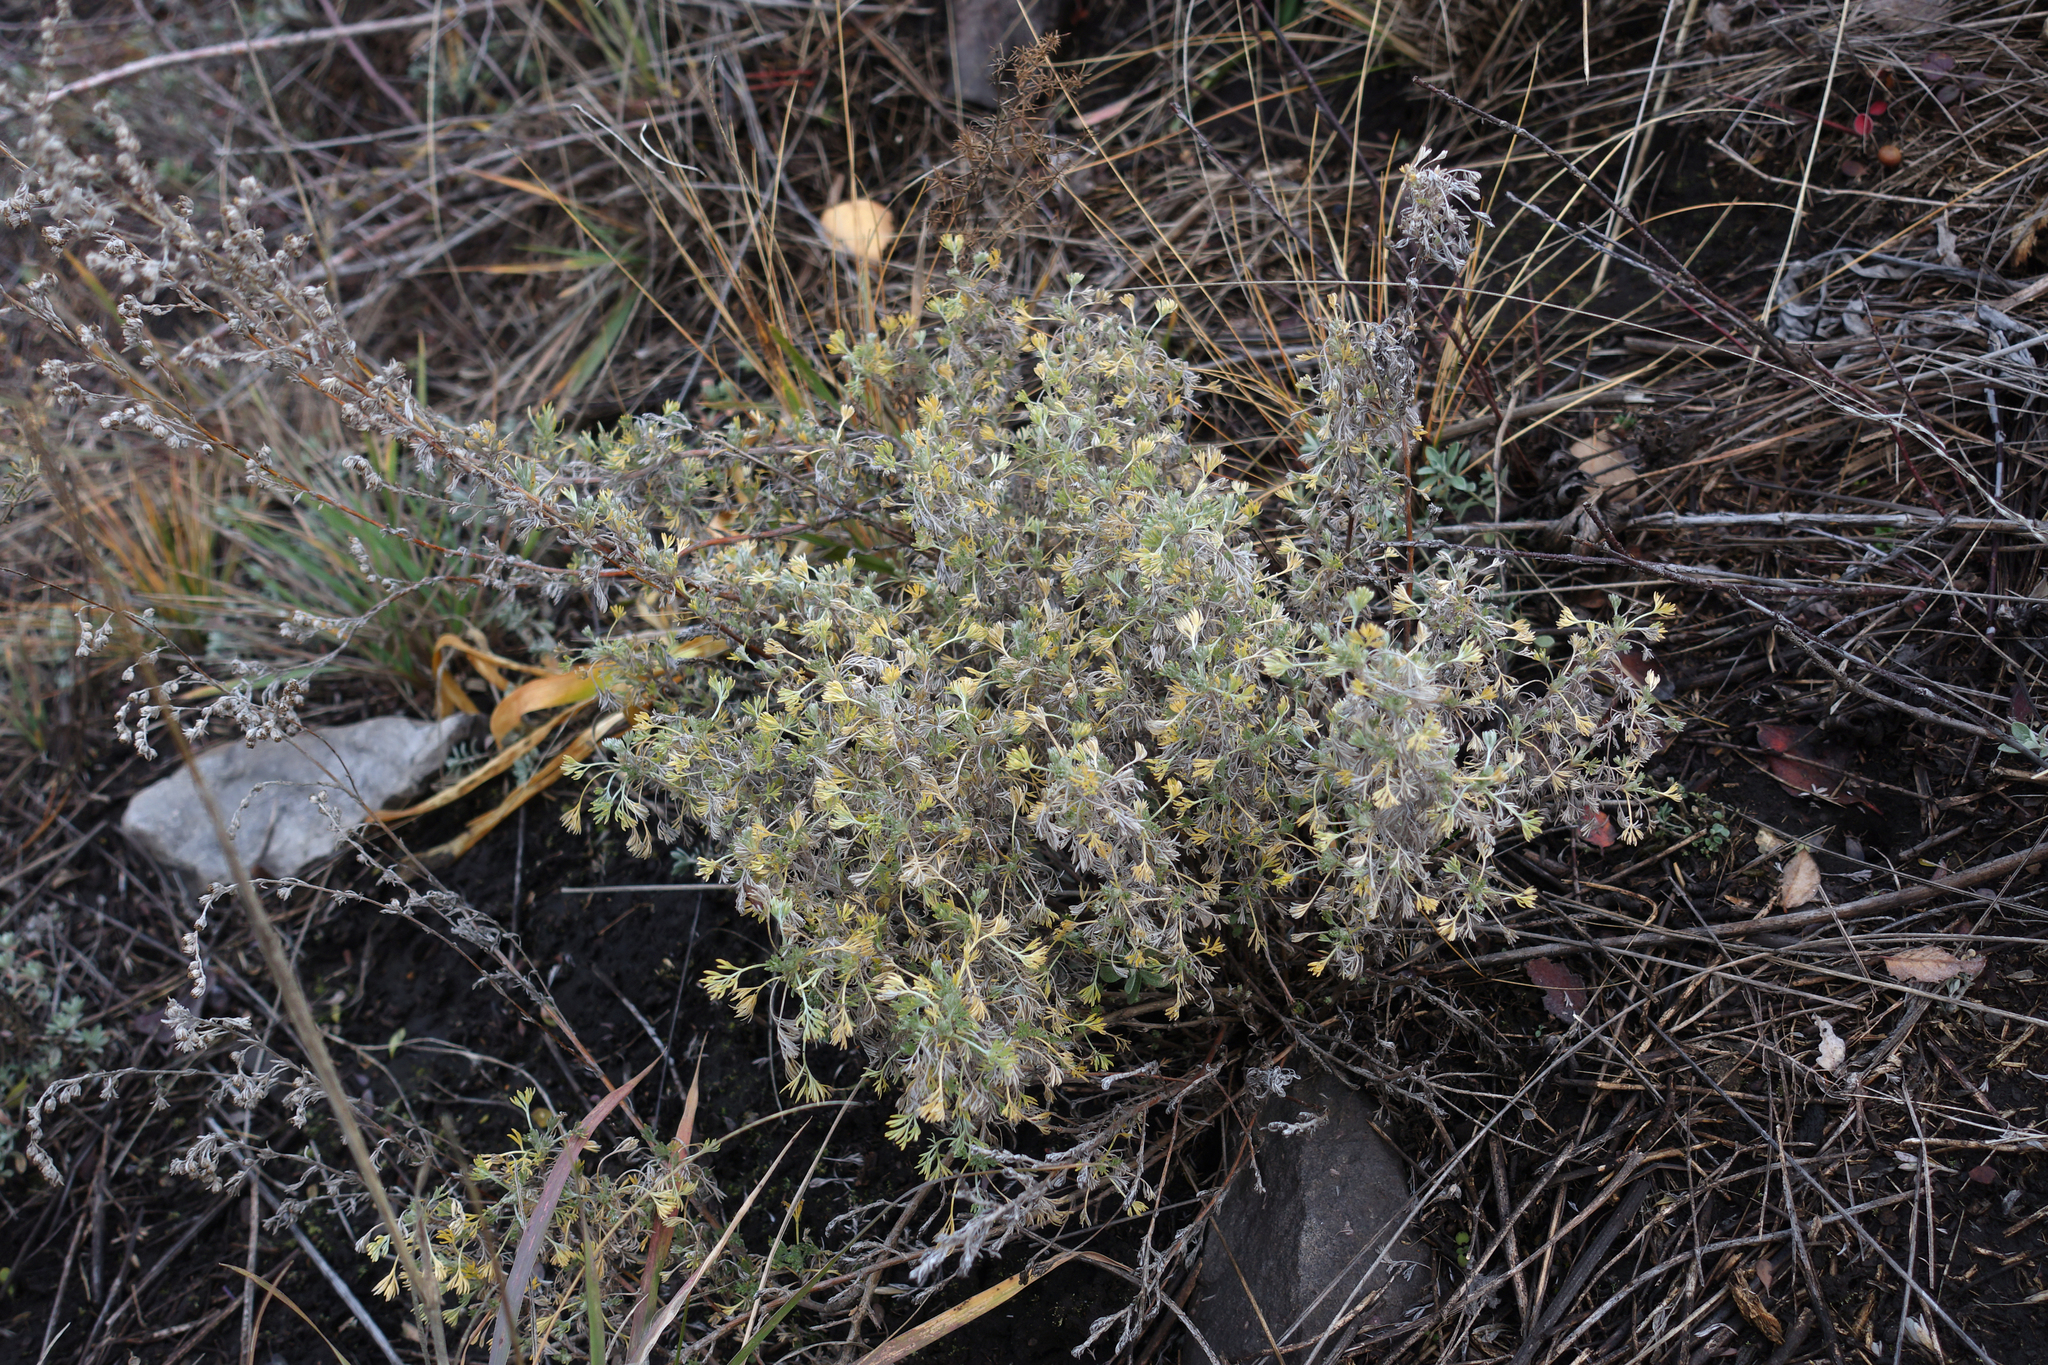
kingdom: Plantae
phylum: Tracheophyta
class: Magnoliopsida
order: Asterales
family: Asteraceae
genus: Artemisia
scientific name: Artemisia frigida
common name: Prairie sagewort
